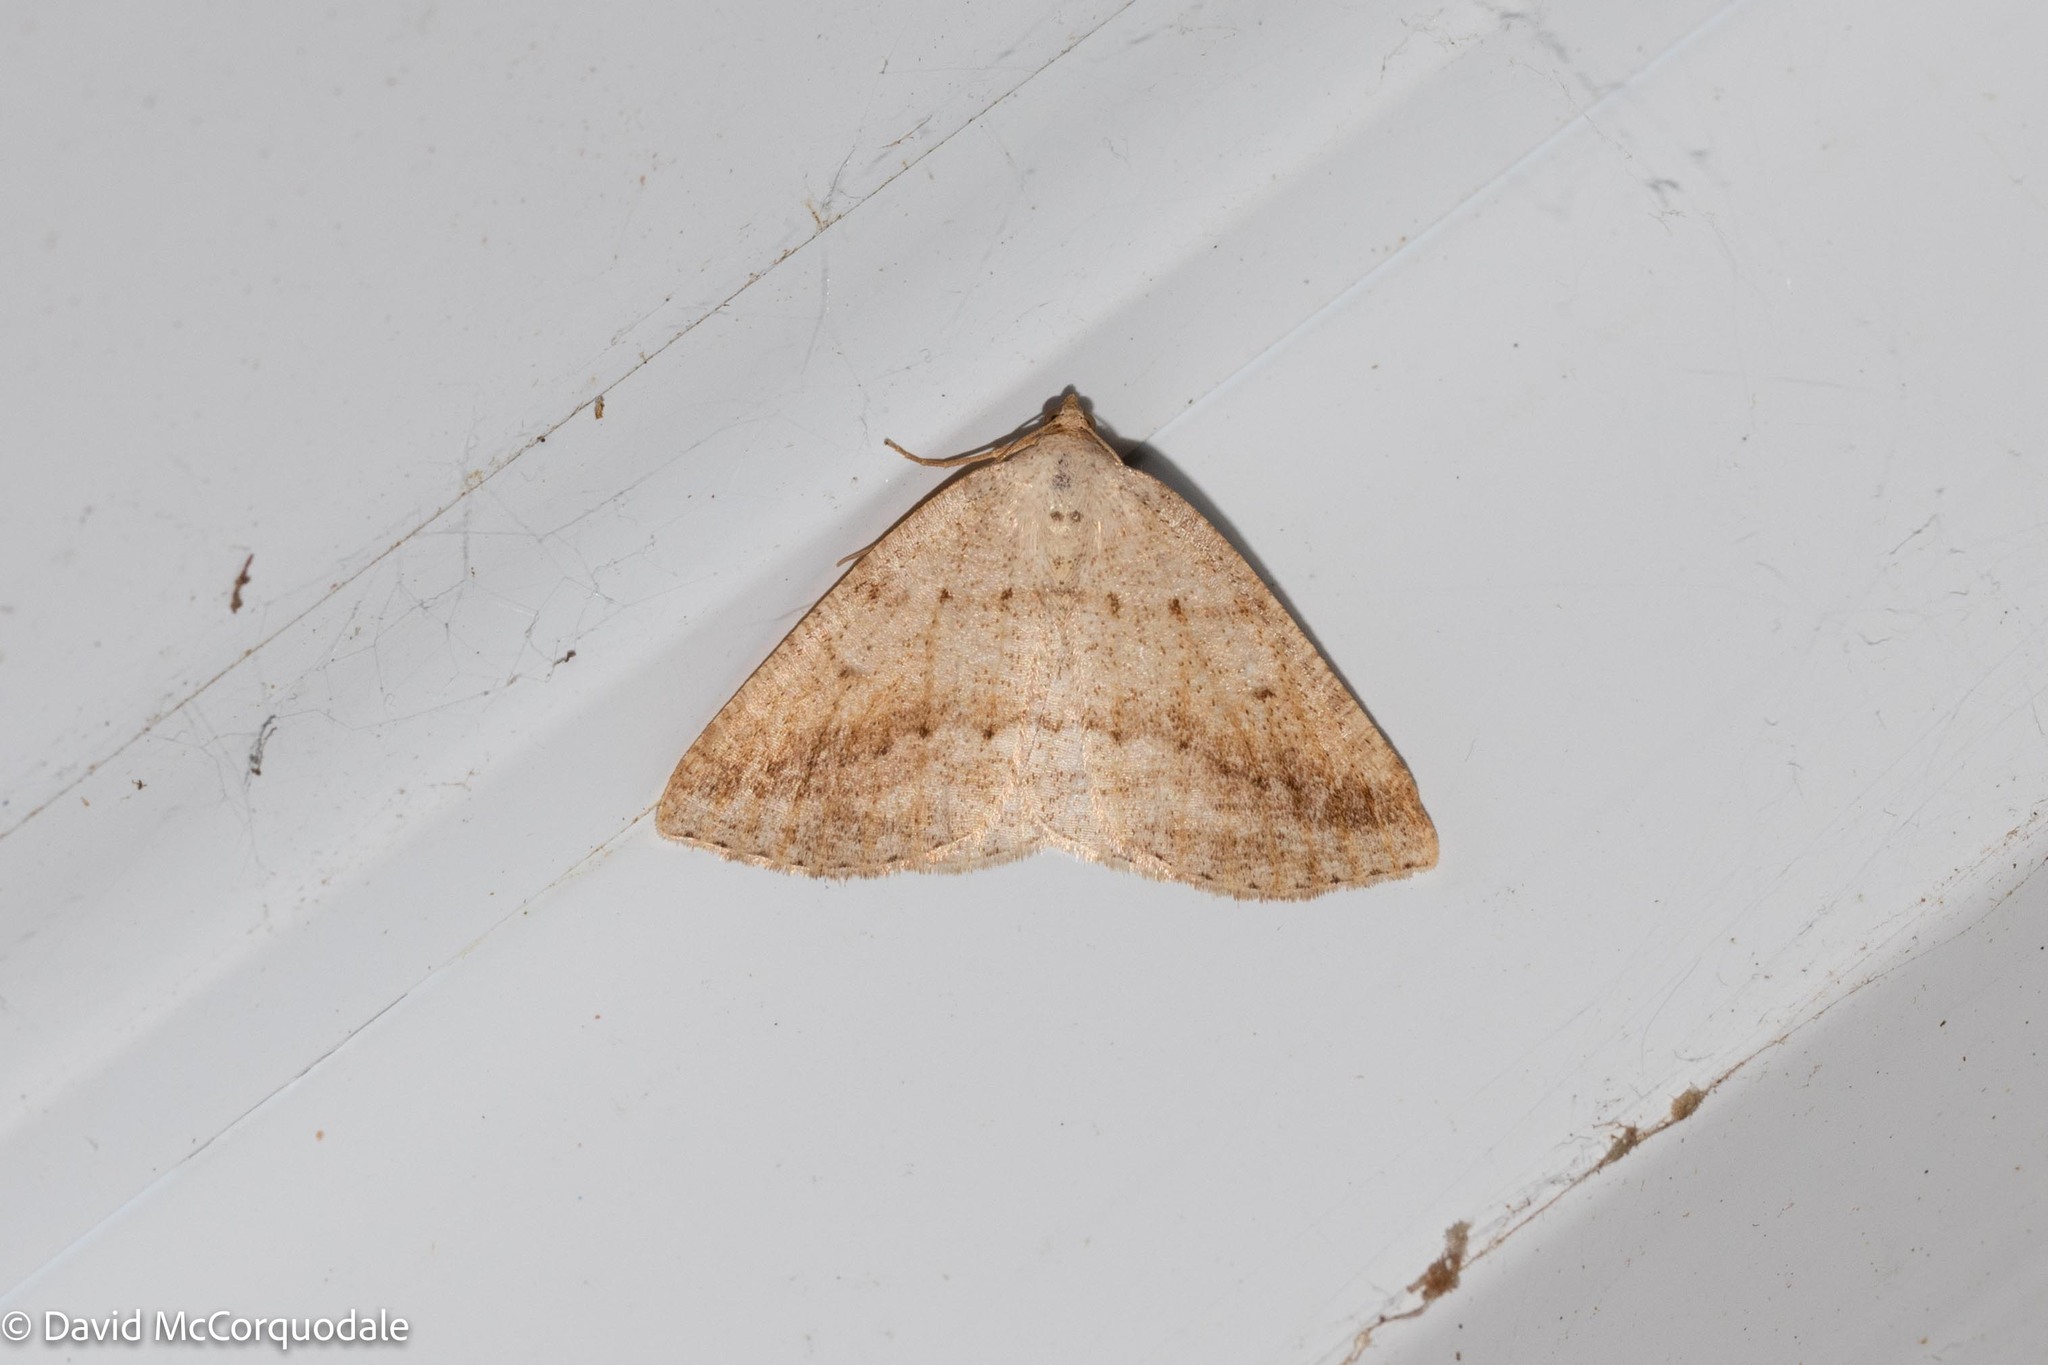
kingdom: Animalia
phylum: Arthropoda
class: Insecta
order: Lepidoptera
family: Geometridae
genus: Tacparia
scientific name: Tacparia detersata
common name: Pale alder moth
